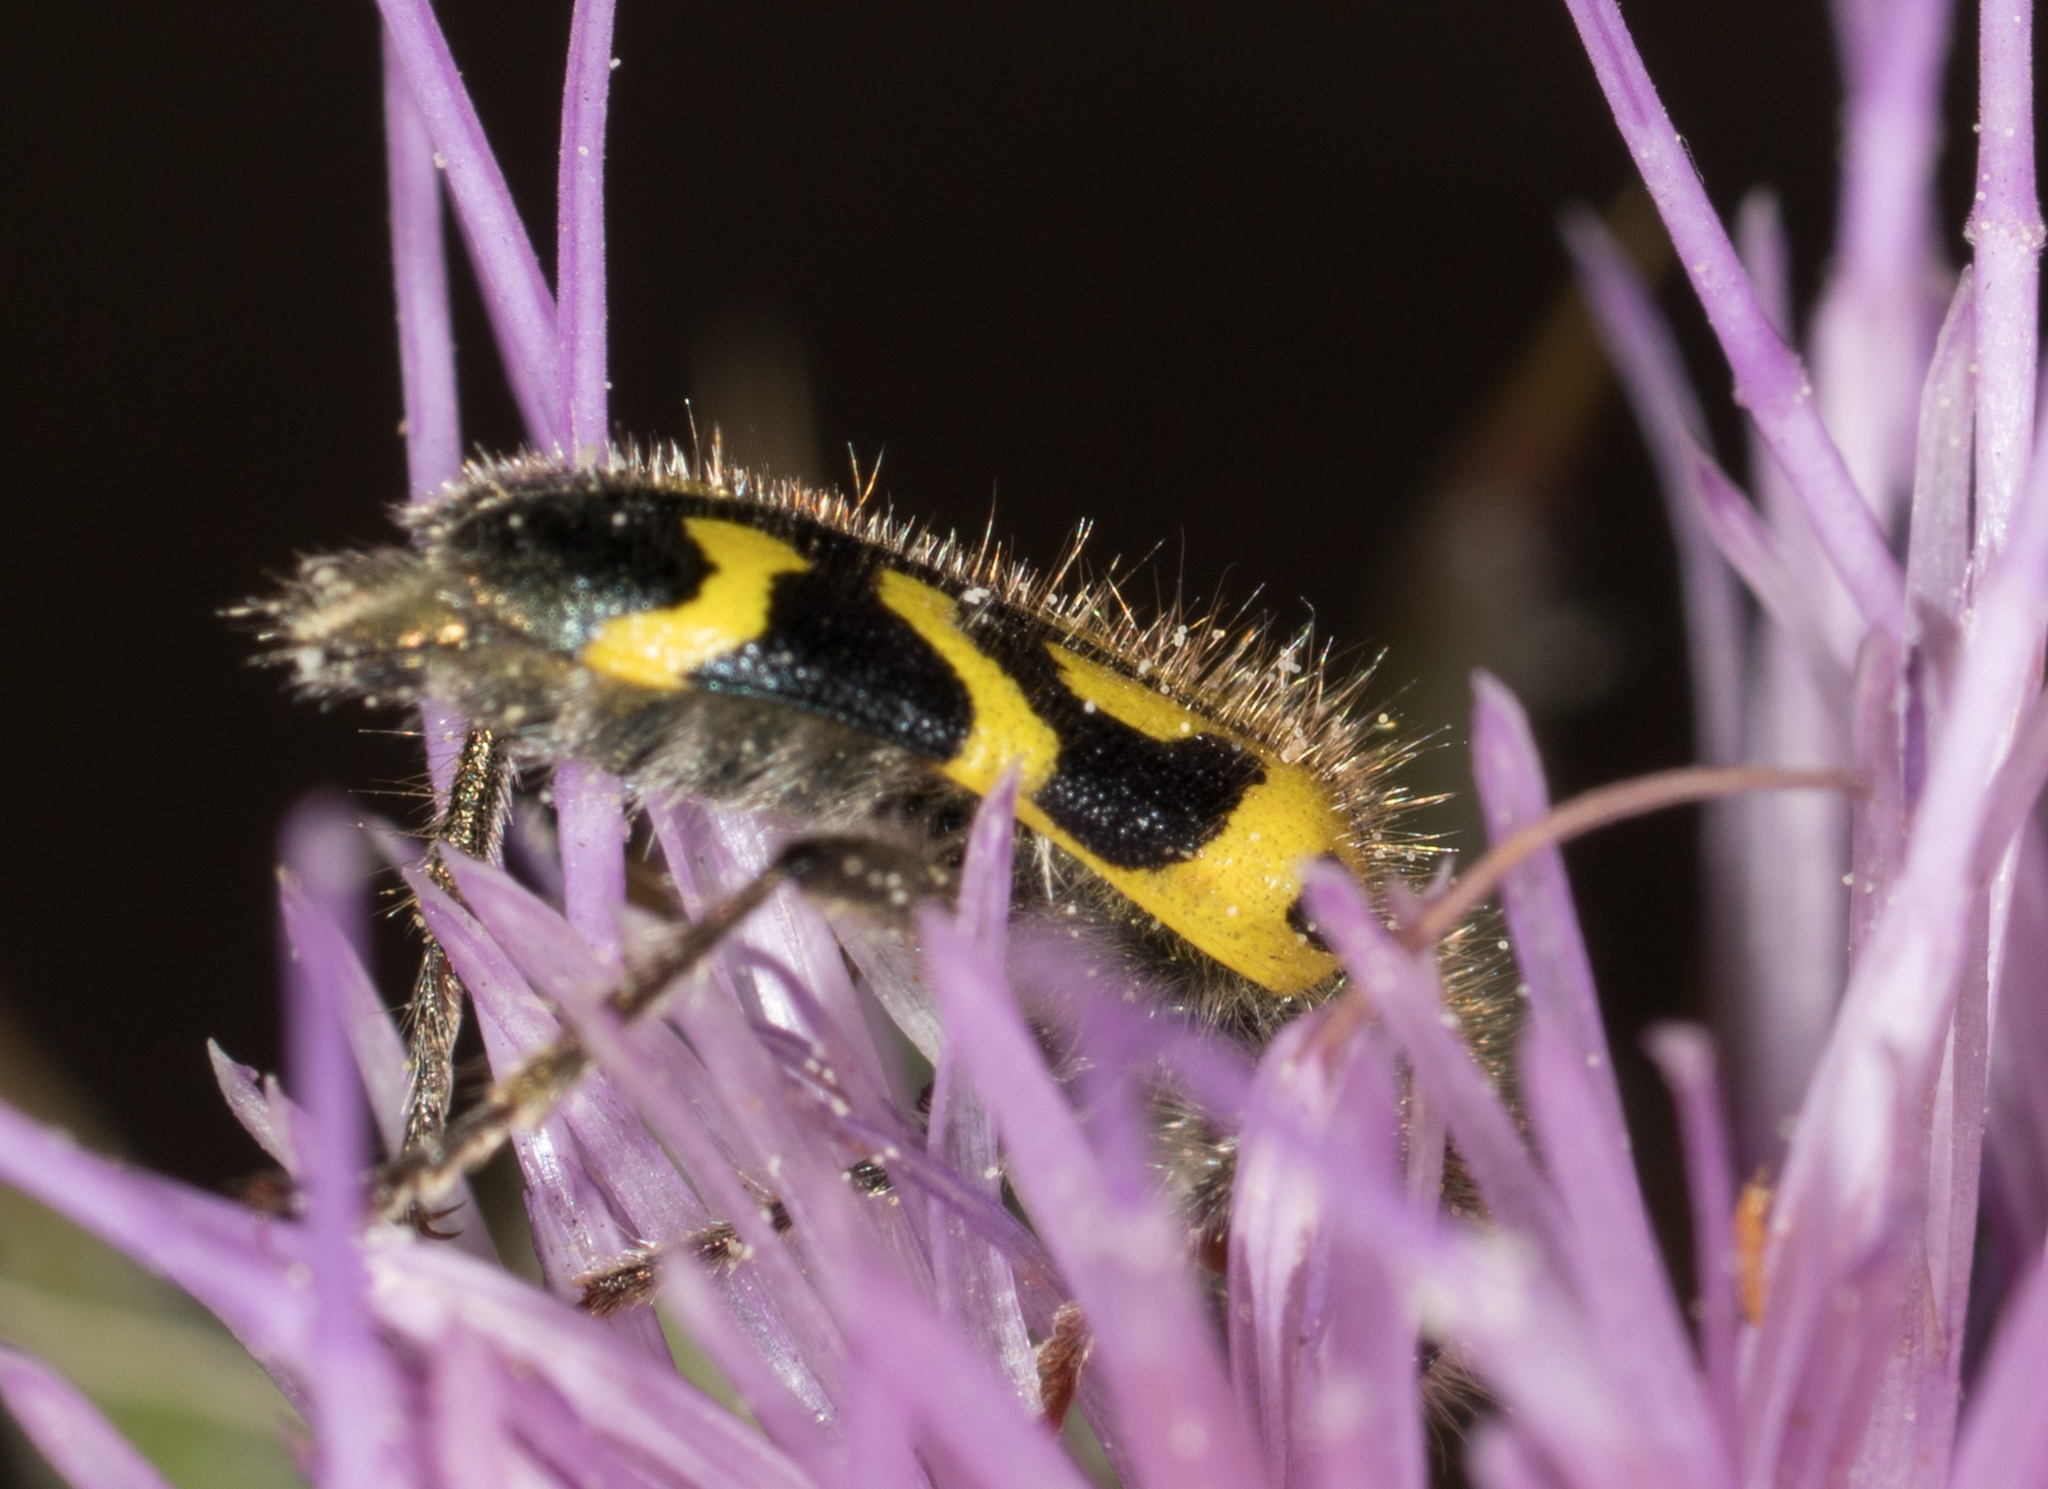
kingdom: Animalia
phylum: Arthropoda
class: Insecta
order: Coleoptera
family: Cleridae
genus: Trichodes
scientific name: Trichodes ornatus
